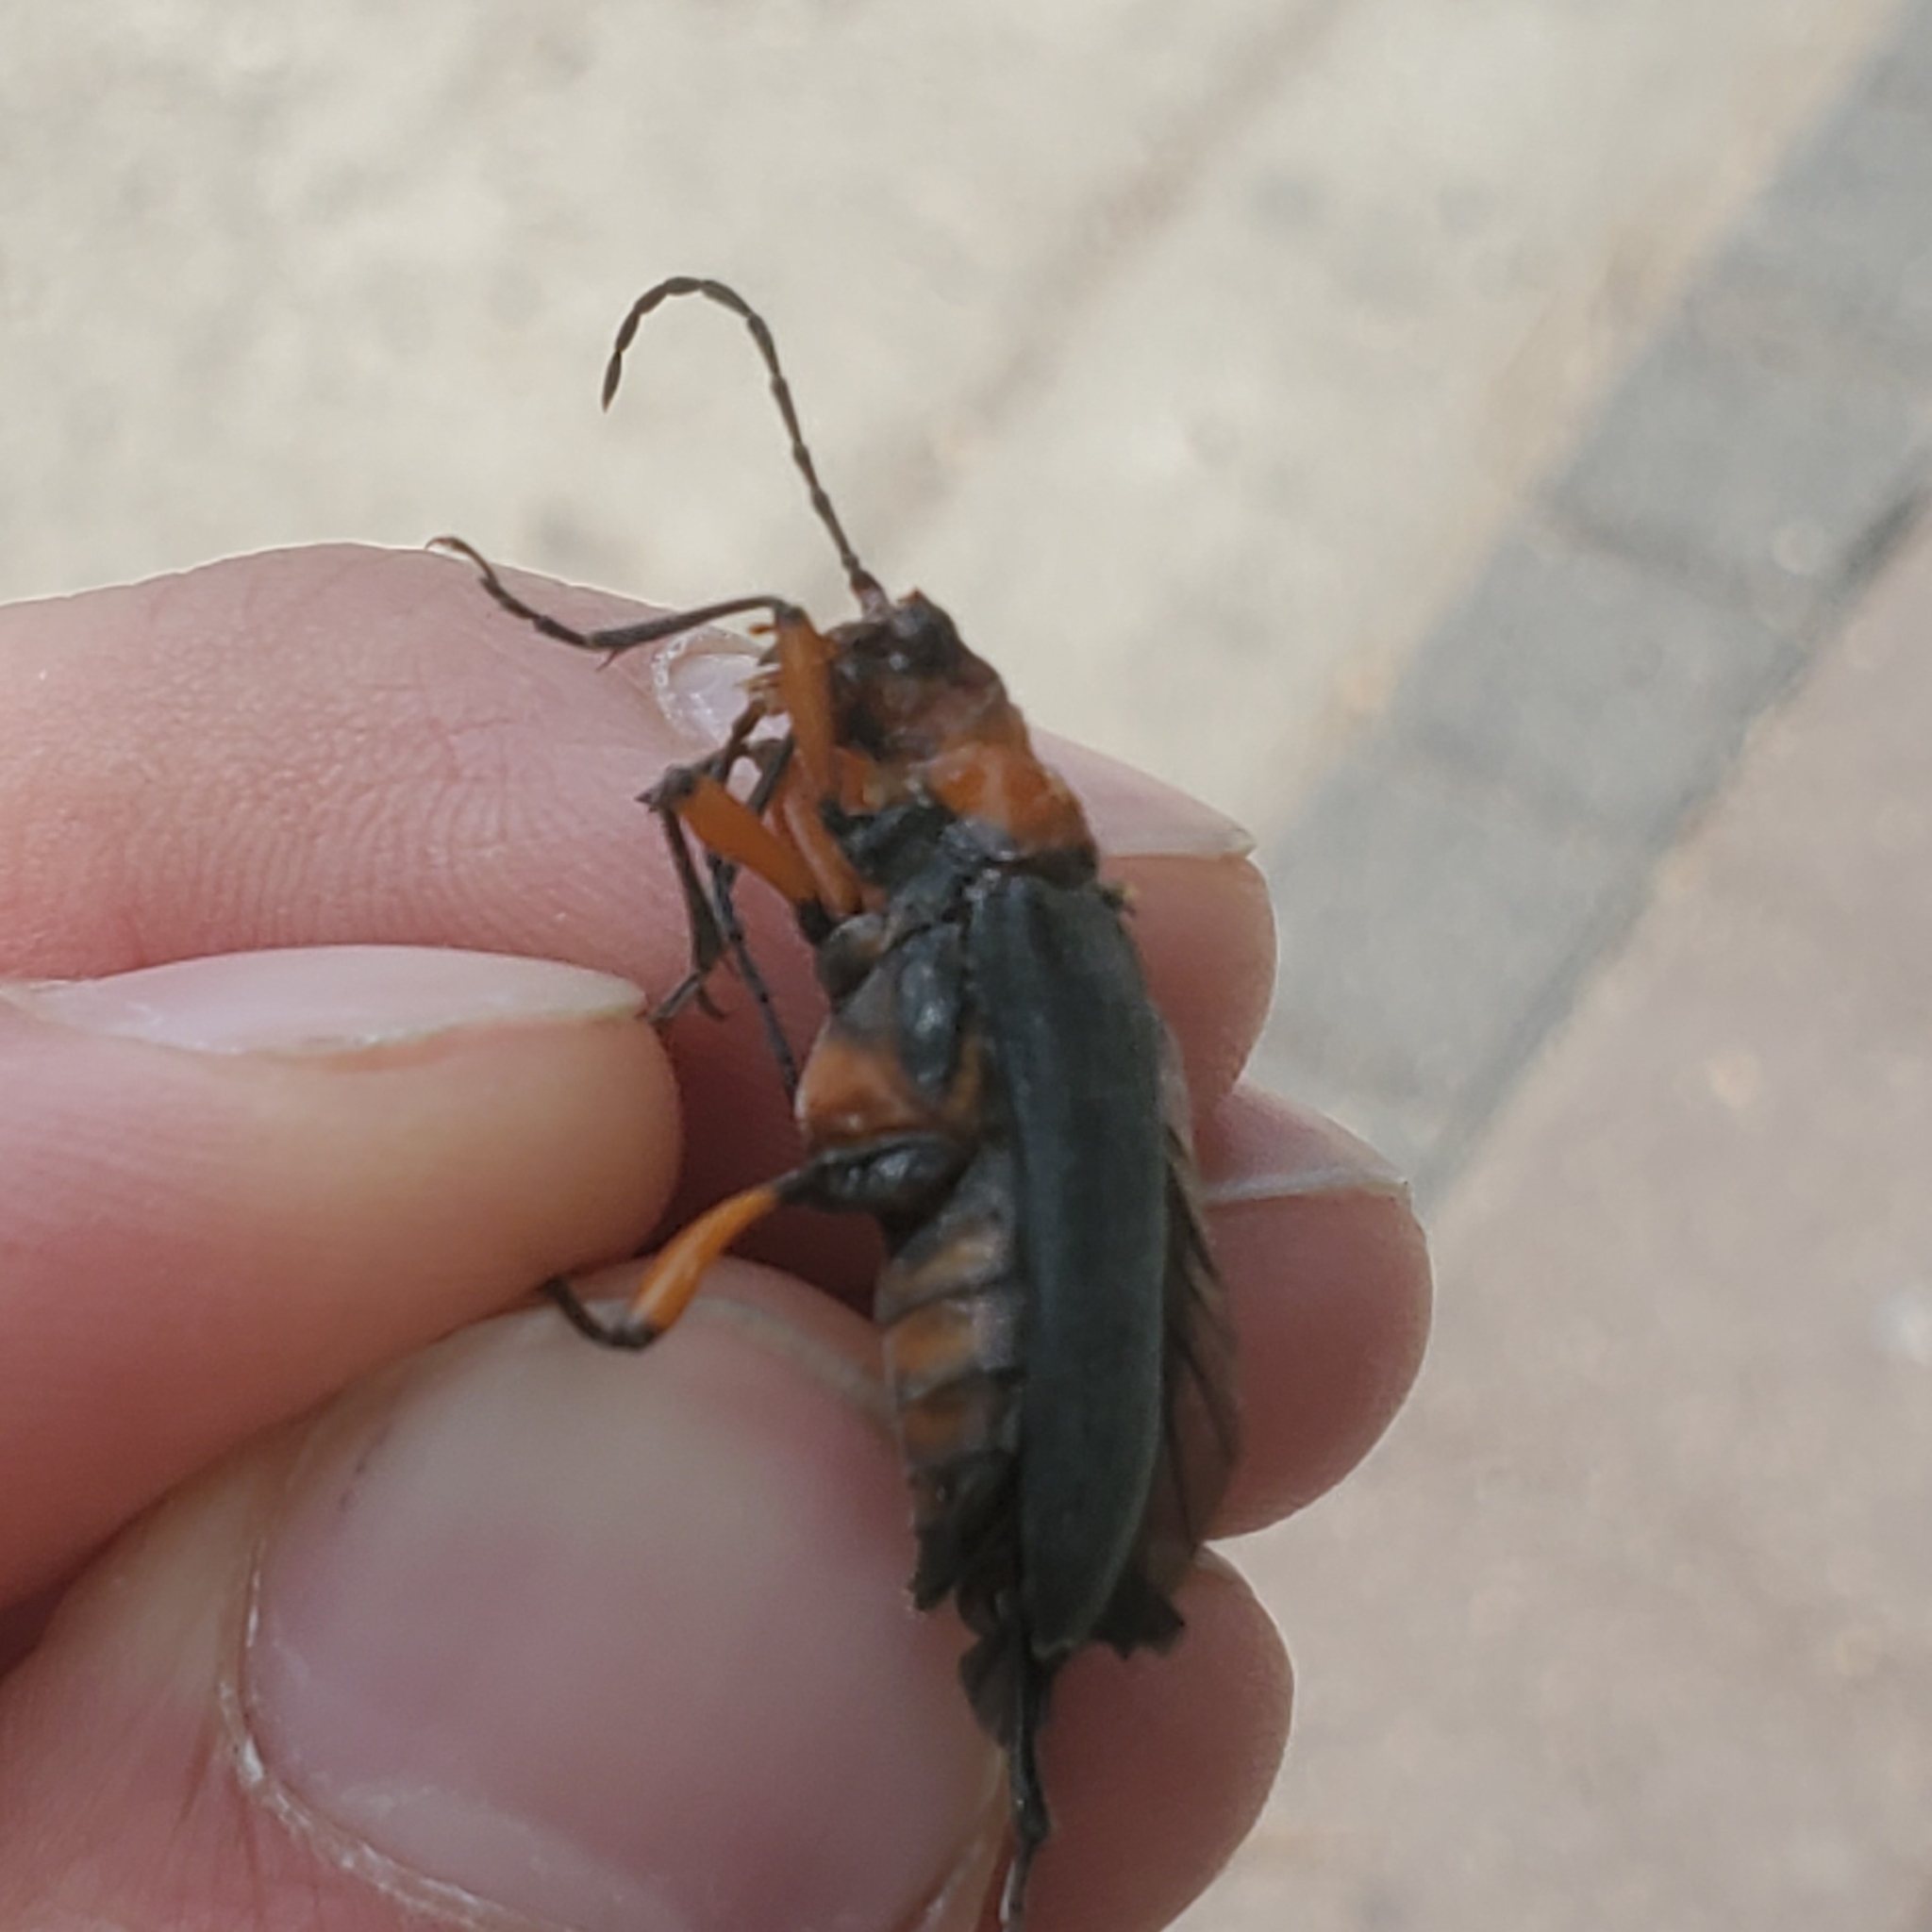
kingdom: Animalia
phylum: Arthropoda
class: Insecta
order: Coleoptera
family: Cerambycidae
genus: Stenocorus
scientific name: Stenocorus schaumii
